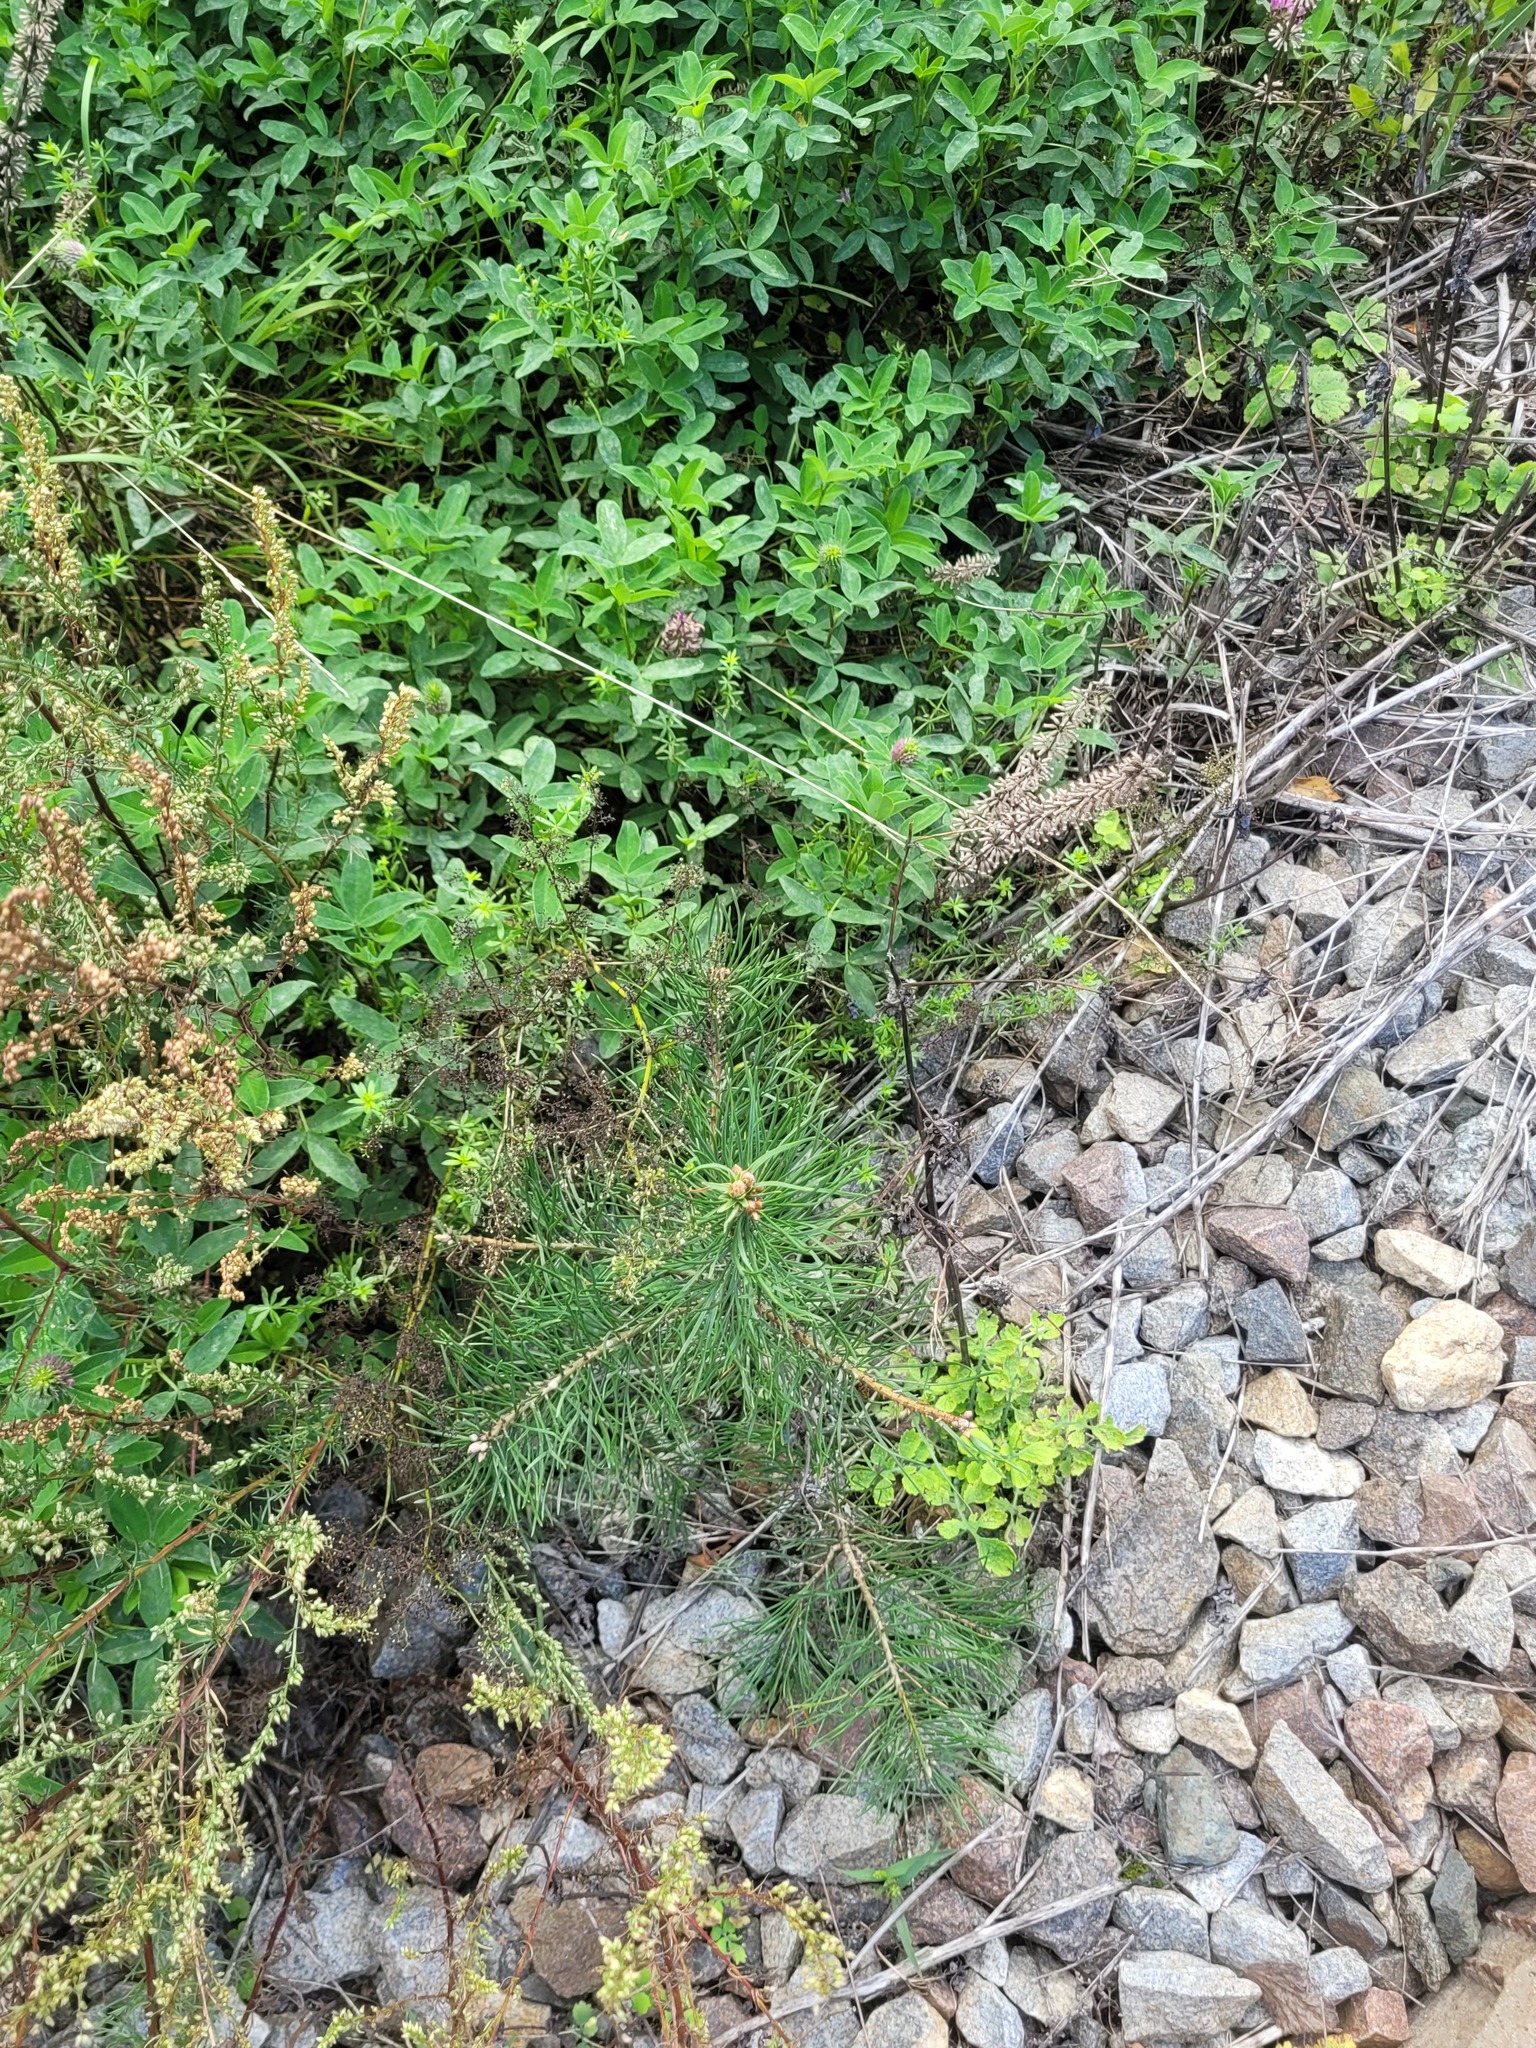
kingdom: Plantae
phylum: Tracheophyta
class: Pinopsida
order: Pinales
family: Pinaceae
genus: Pinus
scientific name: Pinus sylvestris
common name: Scots pine
